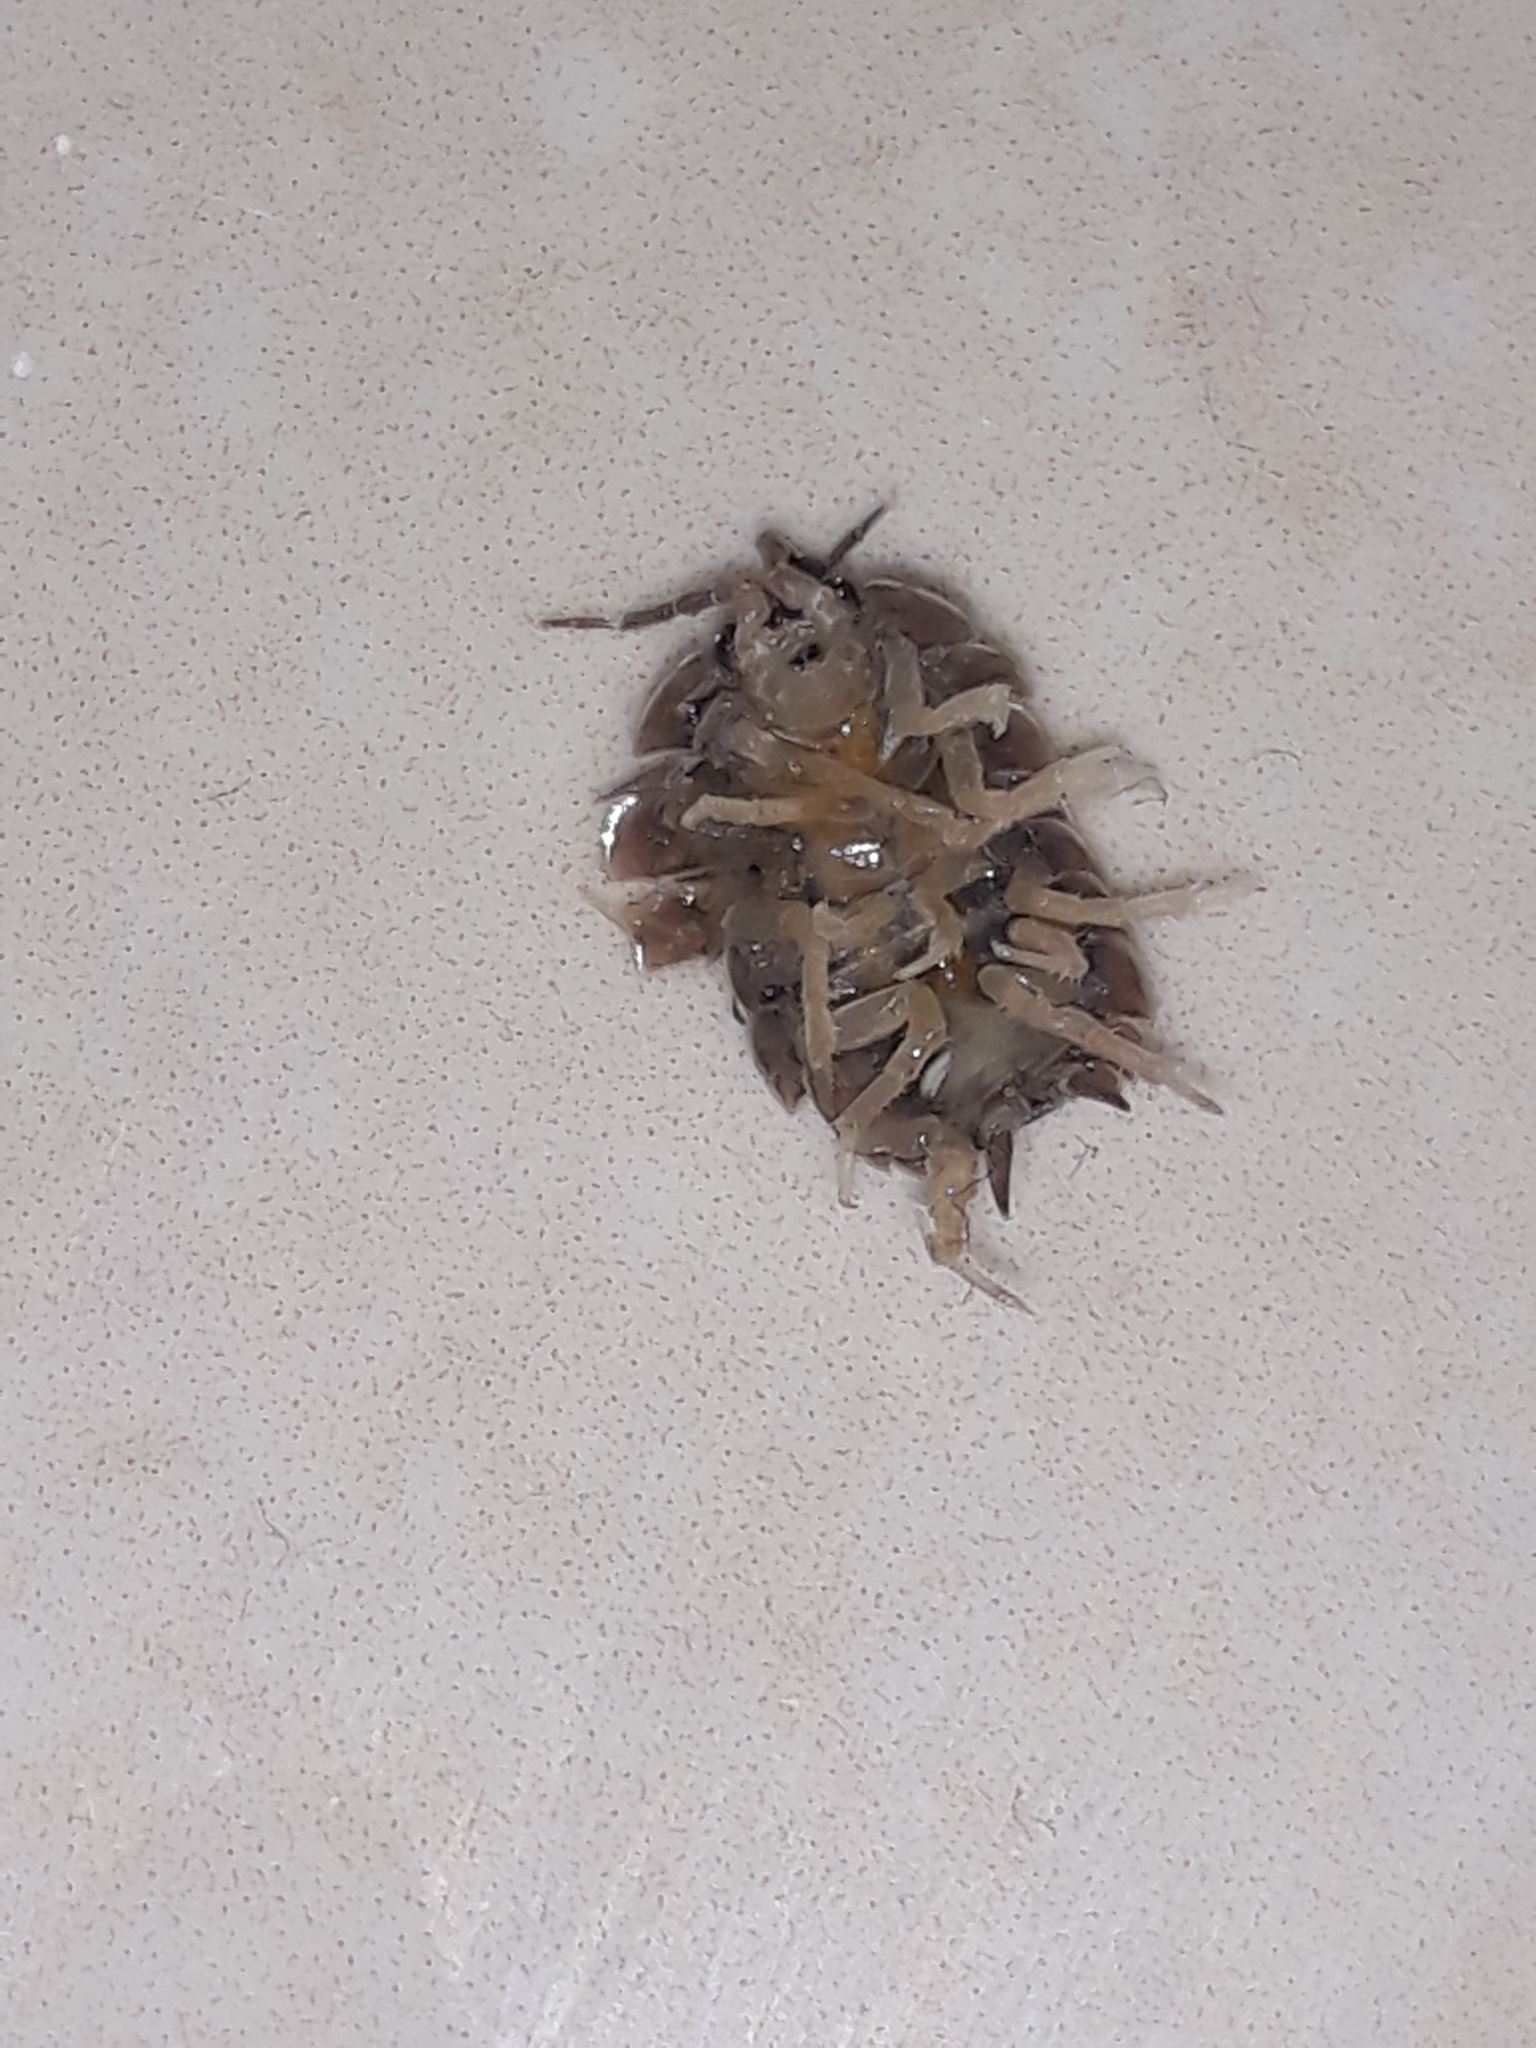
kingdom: Animalia
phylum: Arthropoda
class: Malacostraca
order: Isopoda
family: Porcellionidae
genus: Porcellio
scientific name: Porcellio laevis
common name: Swift woodlouse
